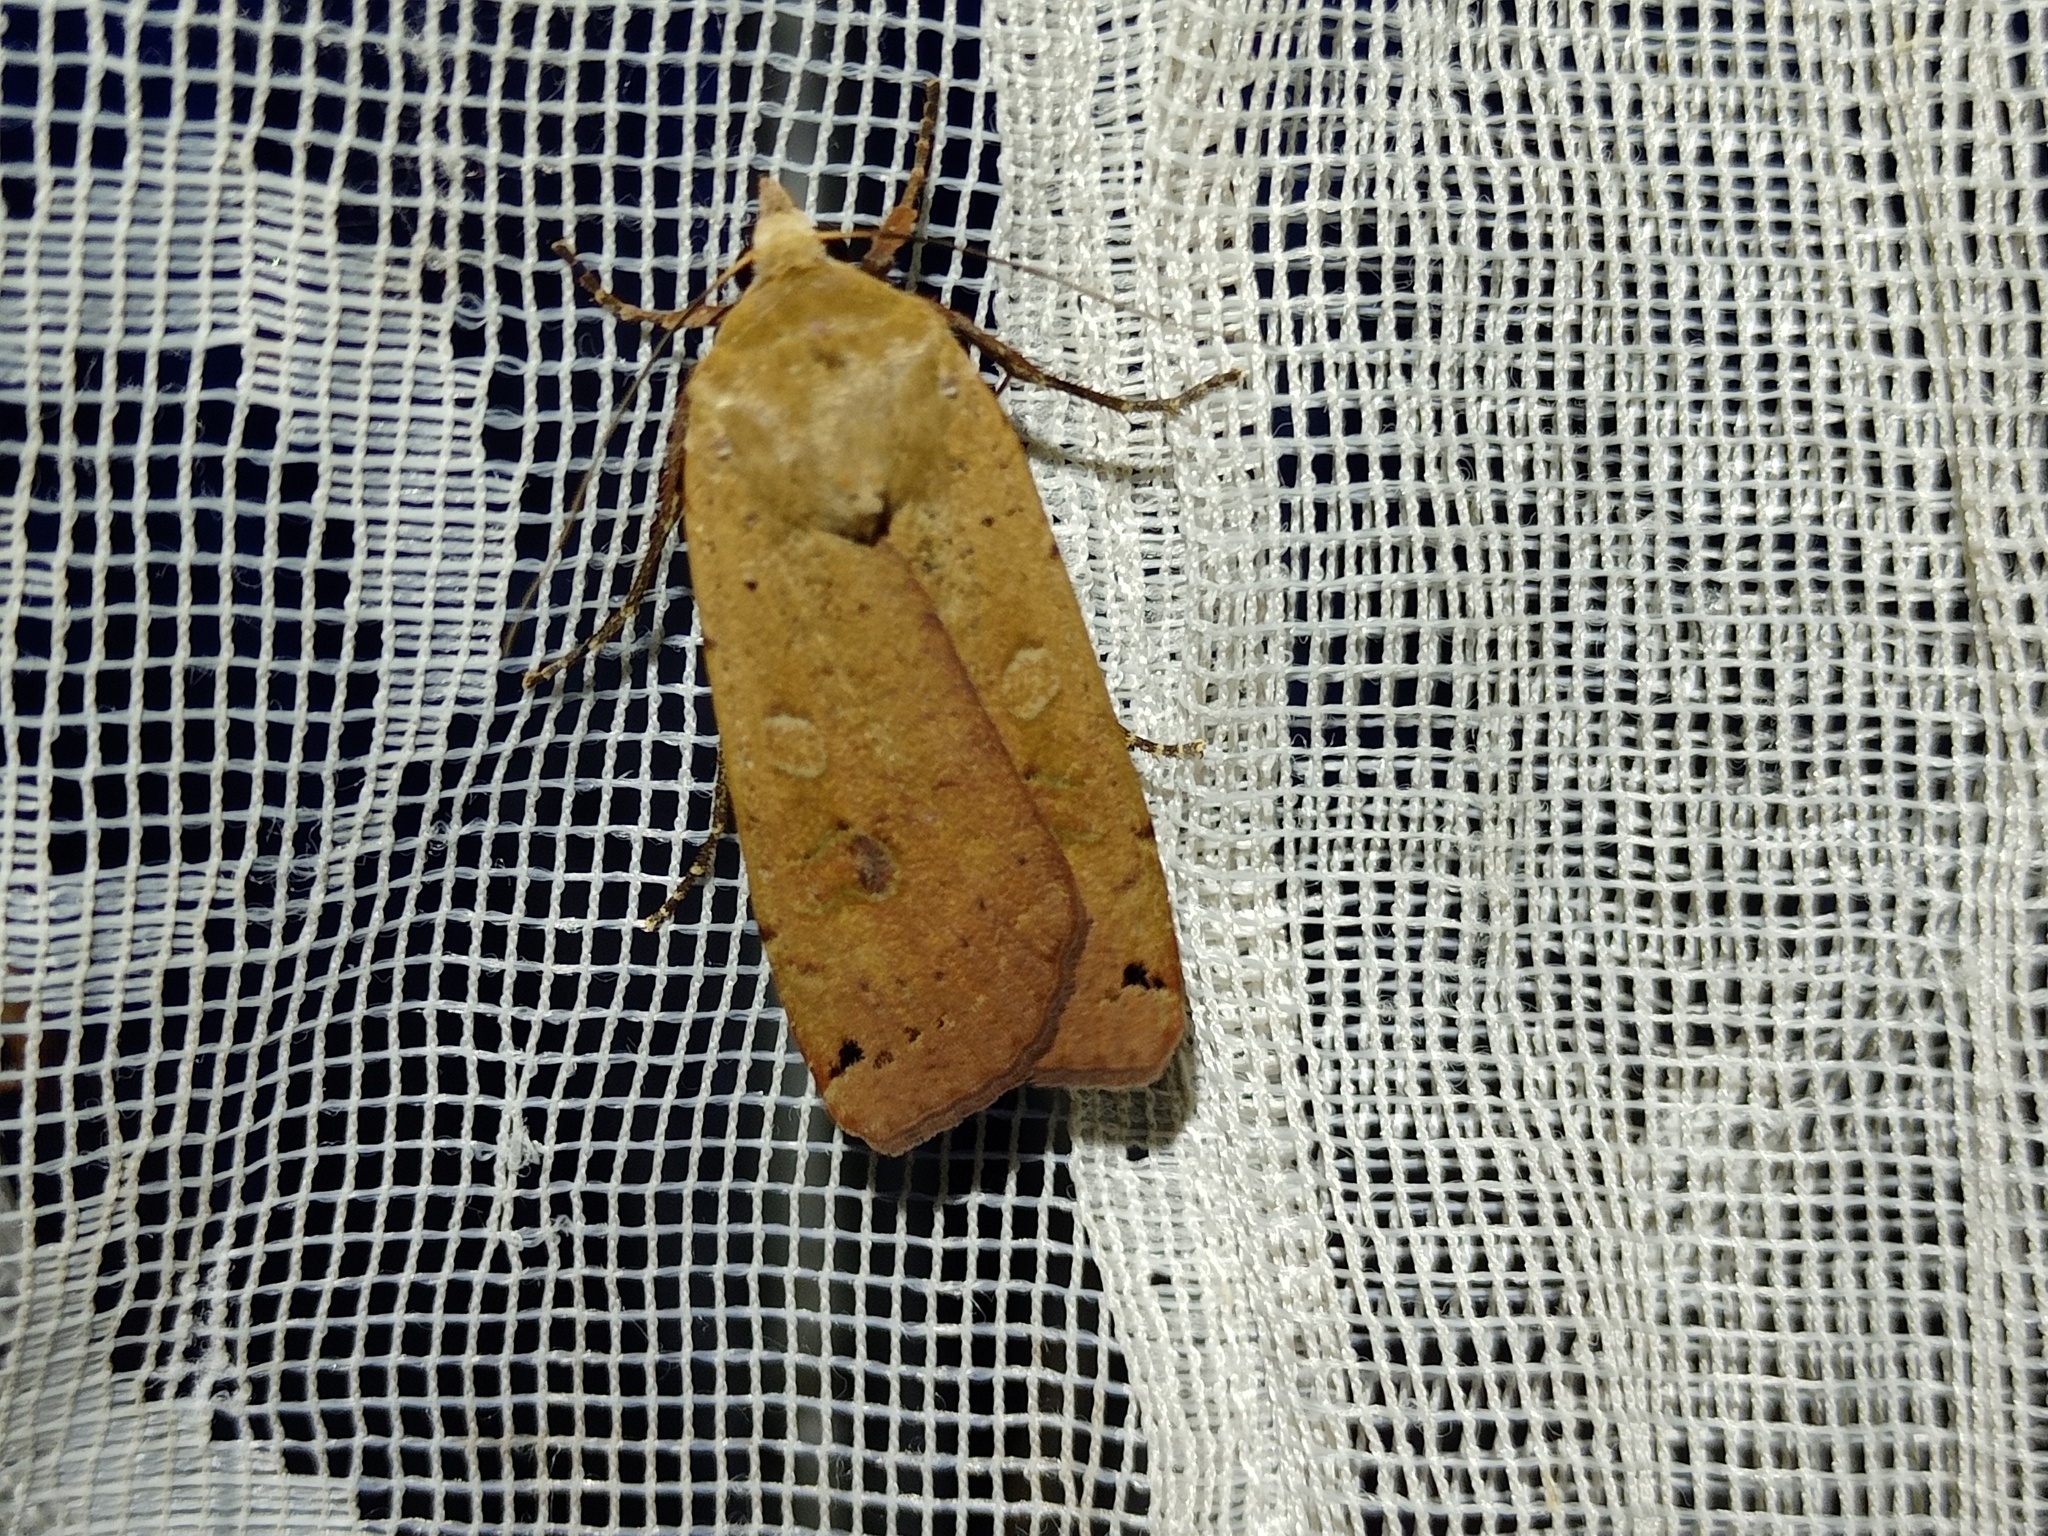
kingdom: Animalia
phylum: Arthropoda
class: Insecta
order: Lepidoptera
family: Noctuidae
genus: Noctua
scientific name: Noctua pronuba
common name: Large yellow underwing
